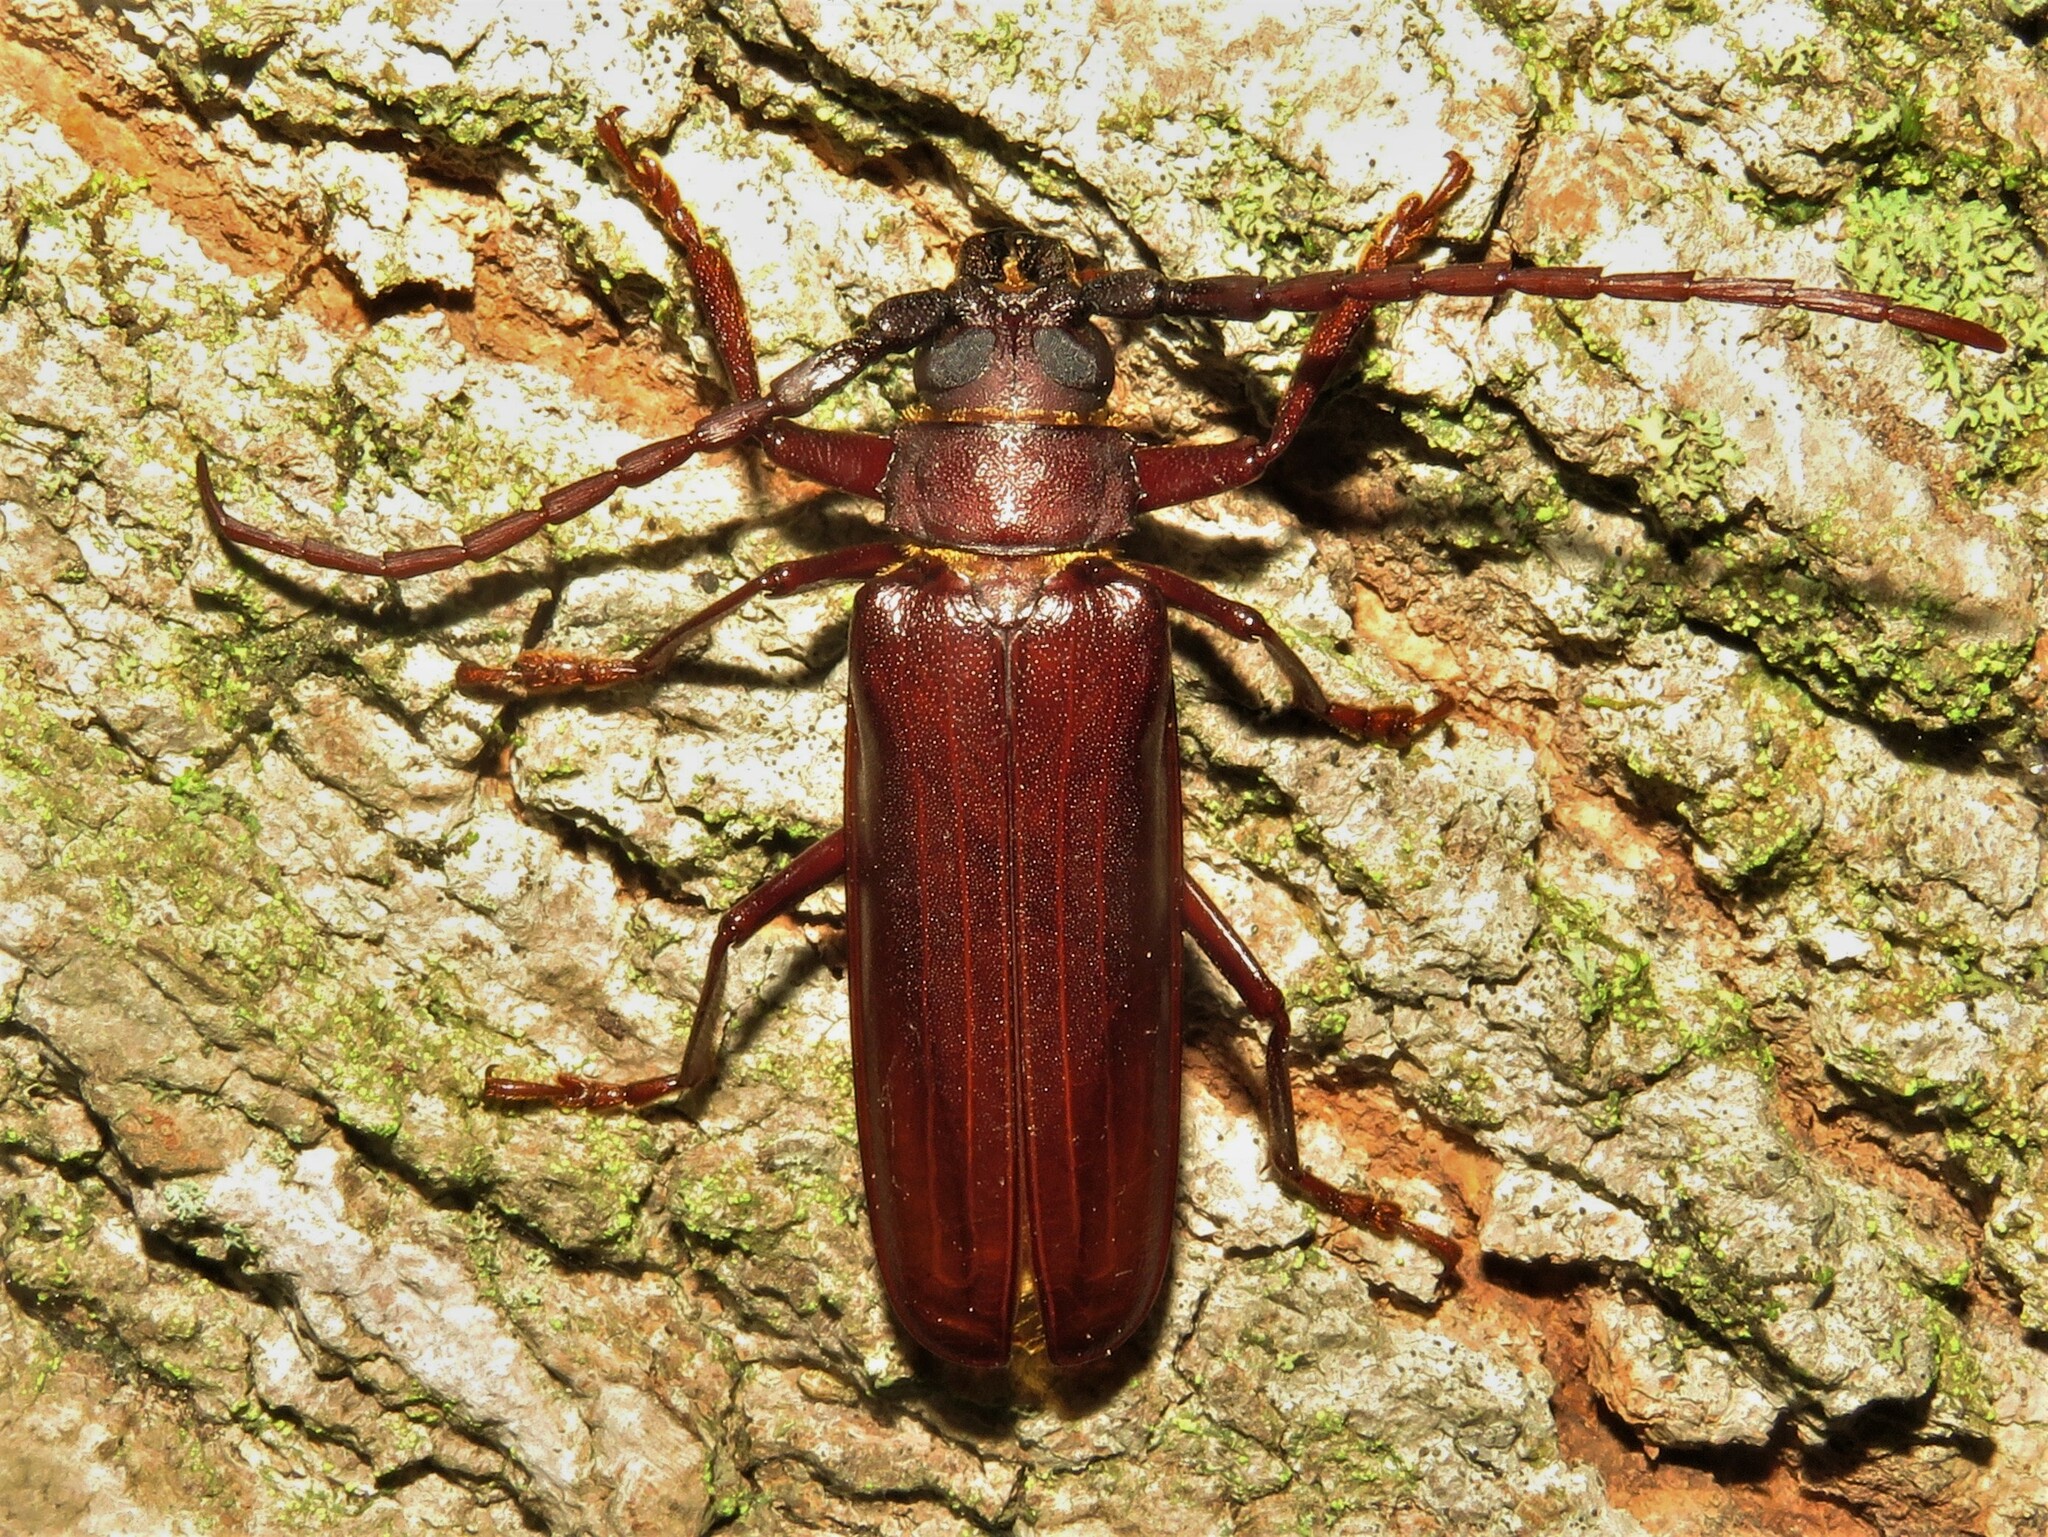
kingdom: Animalia
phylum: Arthropoda
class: Insecta
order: Coleoptera
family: Cerambycidae
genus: Orthosoma
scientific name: Orthosoma brunneum
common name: Brown prionid beetle
